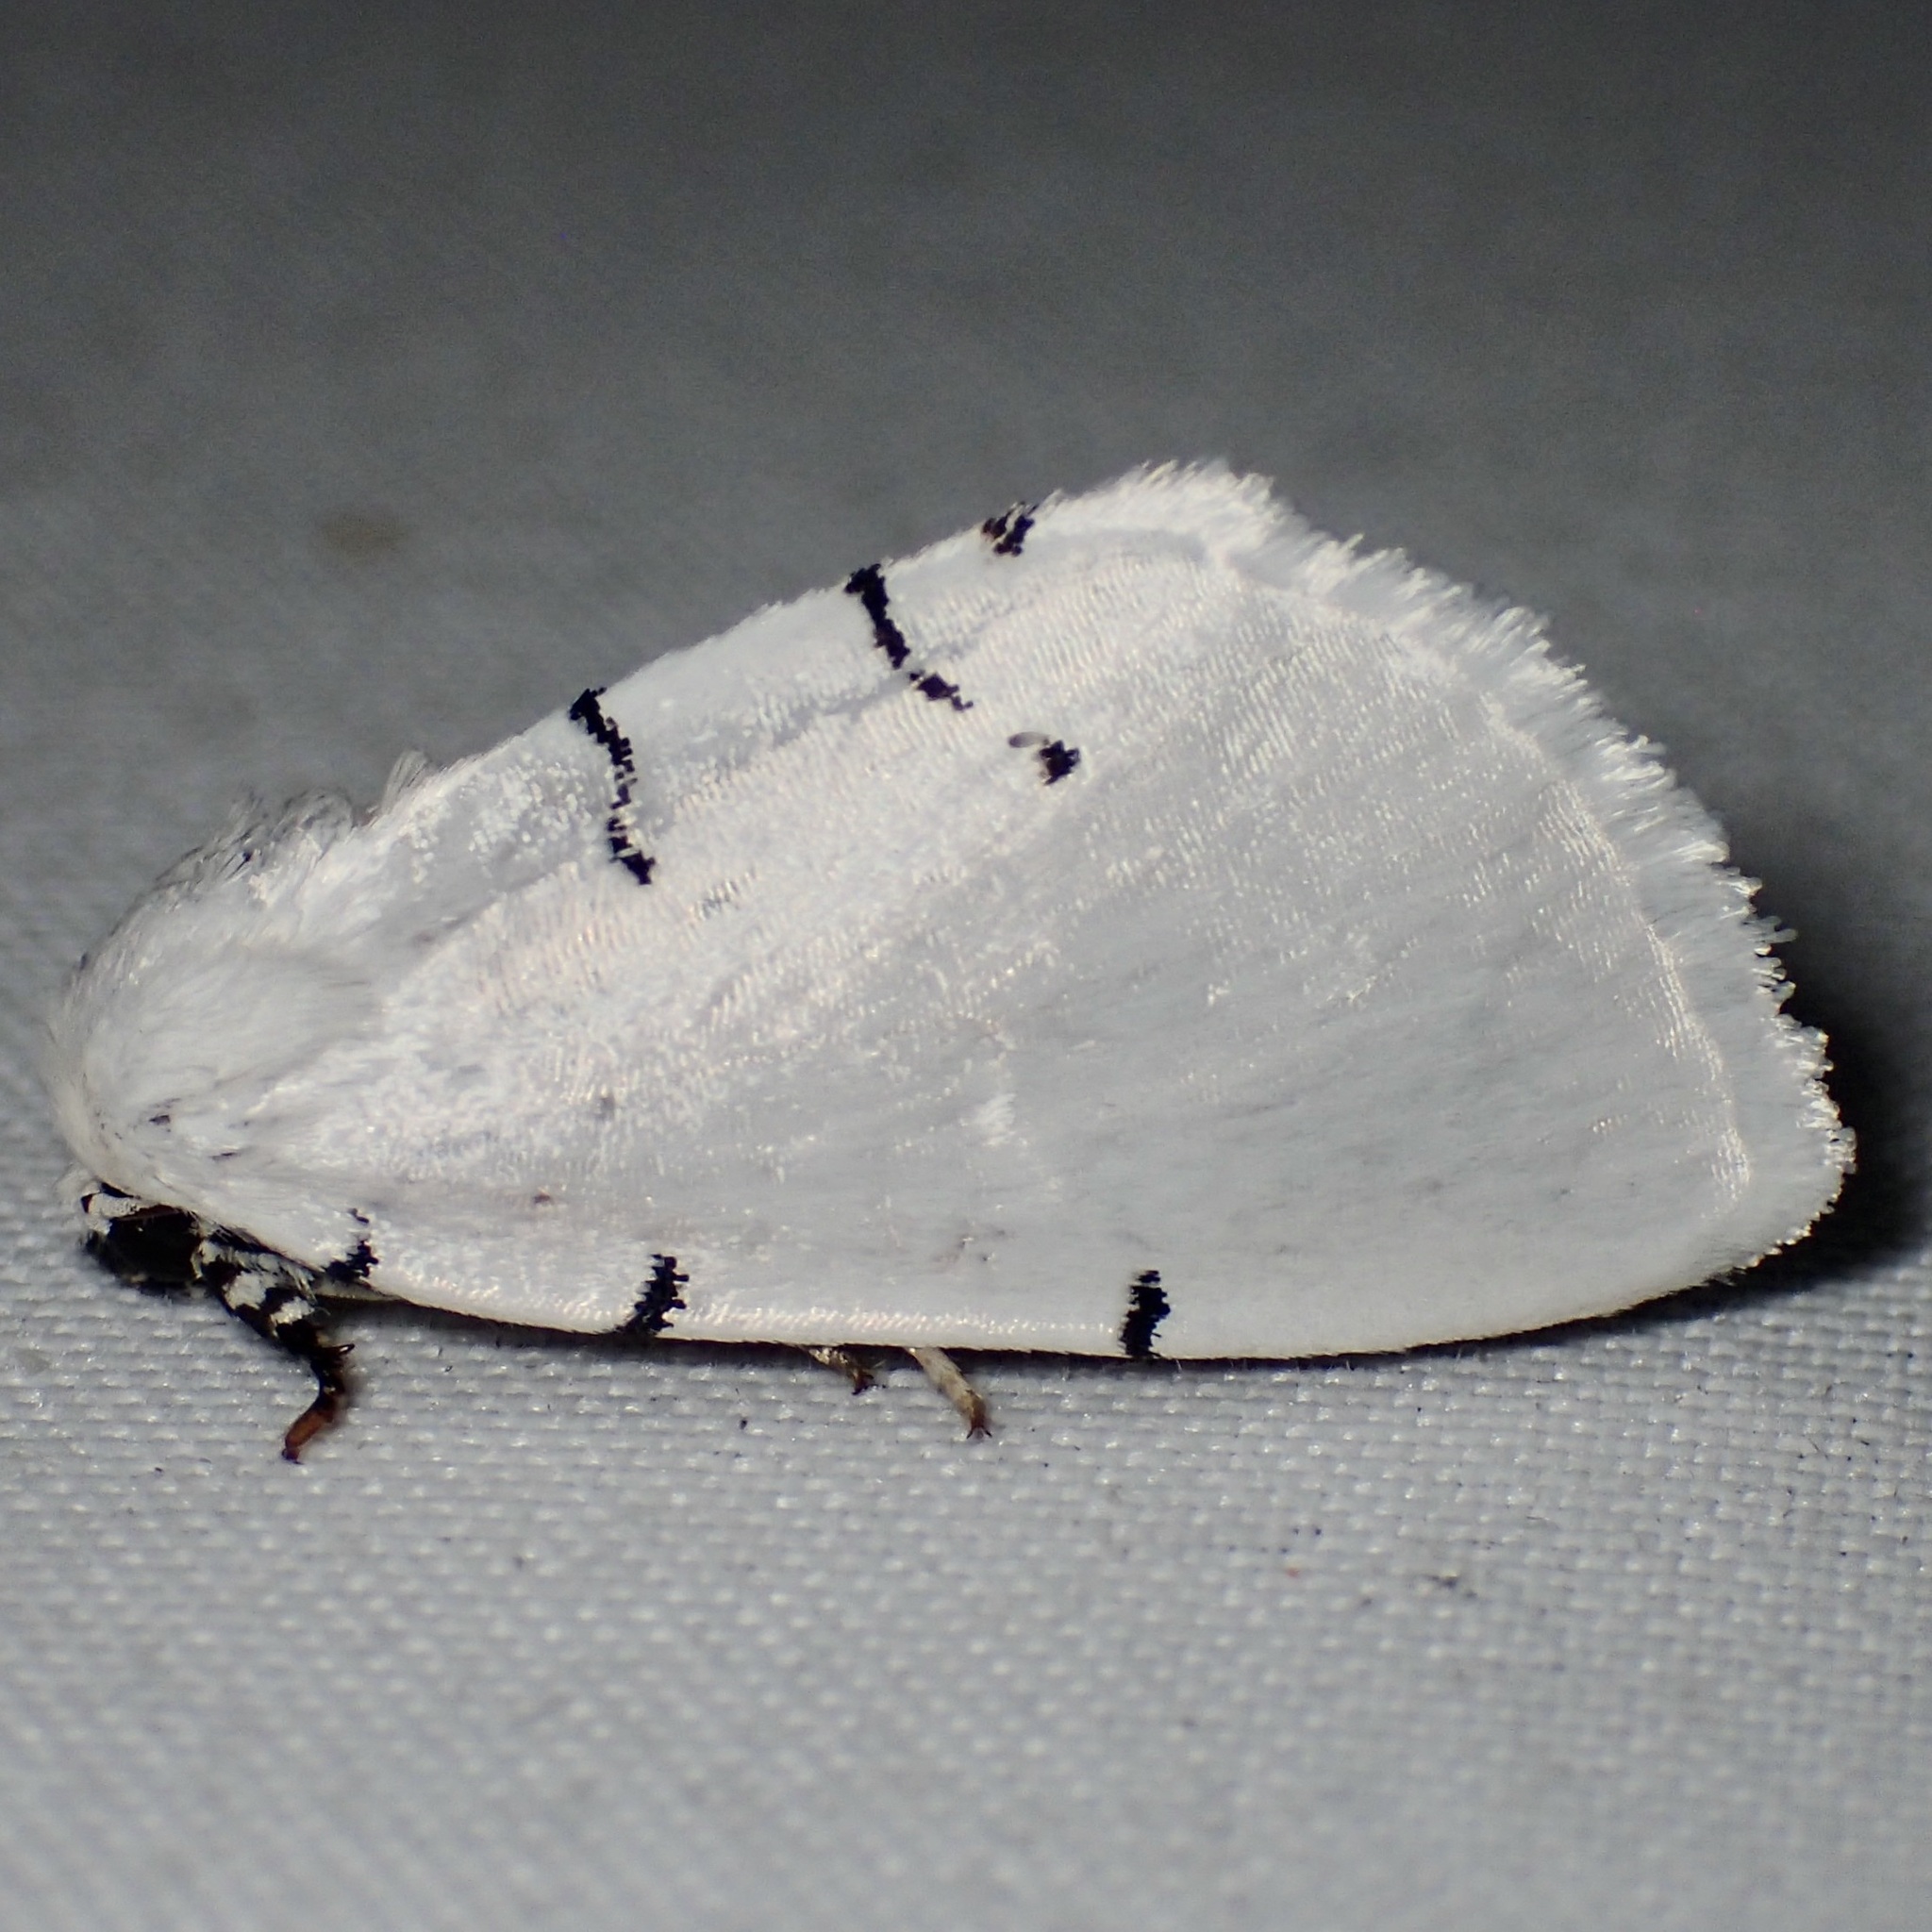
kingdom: Animalia
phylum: Arthropoda
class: Insecta
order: Lepidoptera
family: Noctuidae
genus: Hemioslaria
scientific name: Hemioslaria pima
